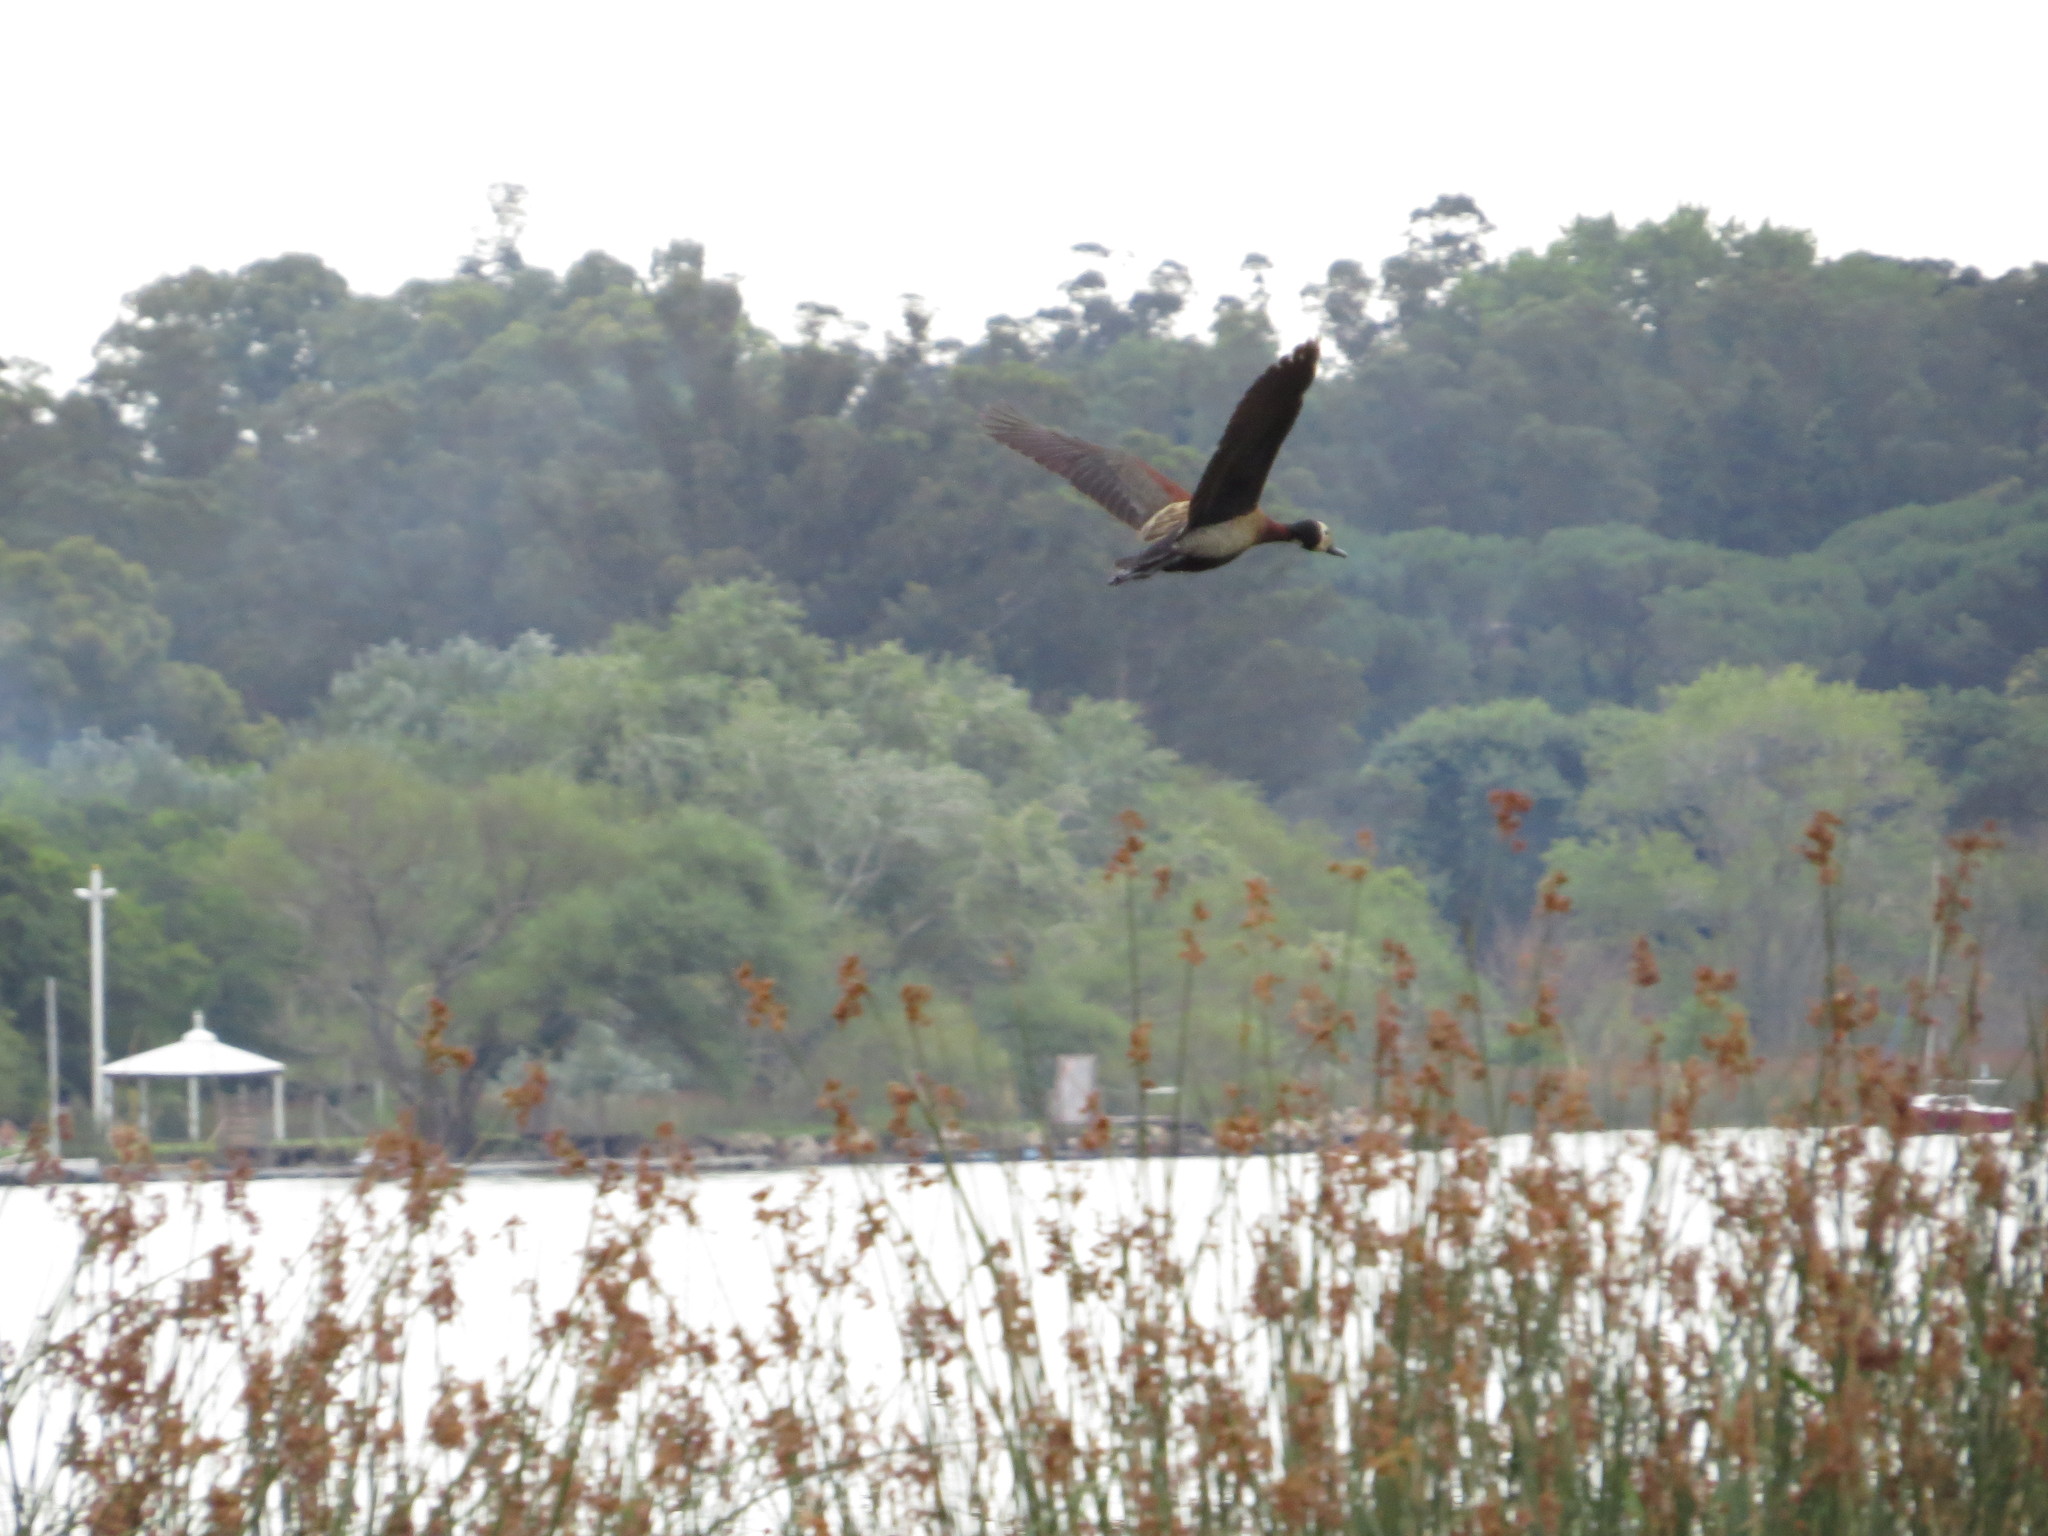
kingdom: Animalia
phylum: Chordata
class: Aves
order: Anseriformes
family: Anatidae
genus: Dendrocygna
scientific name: Dendrocygna viduata
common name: White-faced whistling duck
